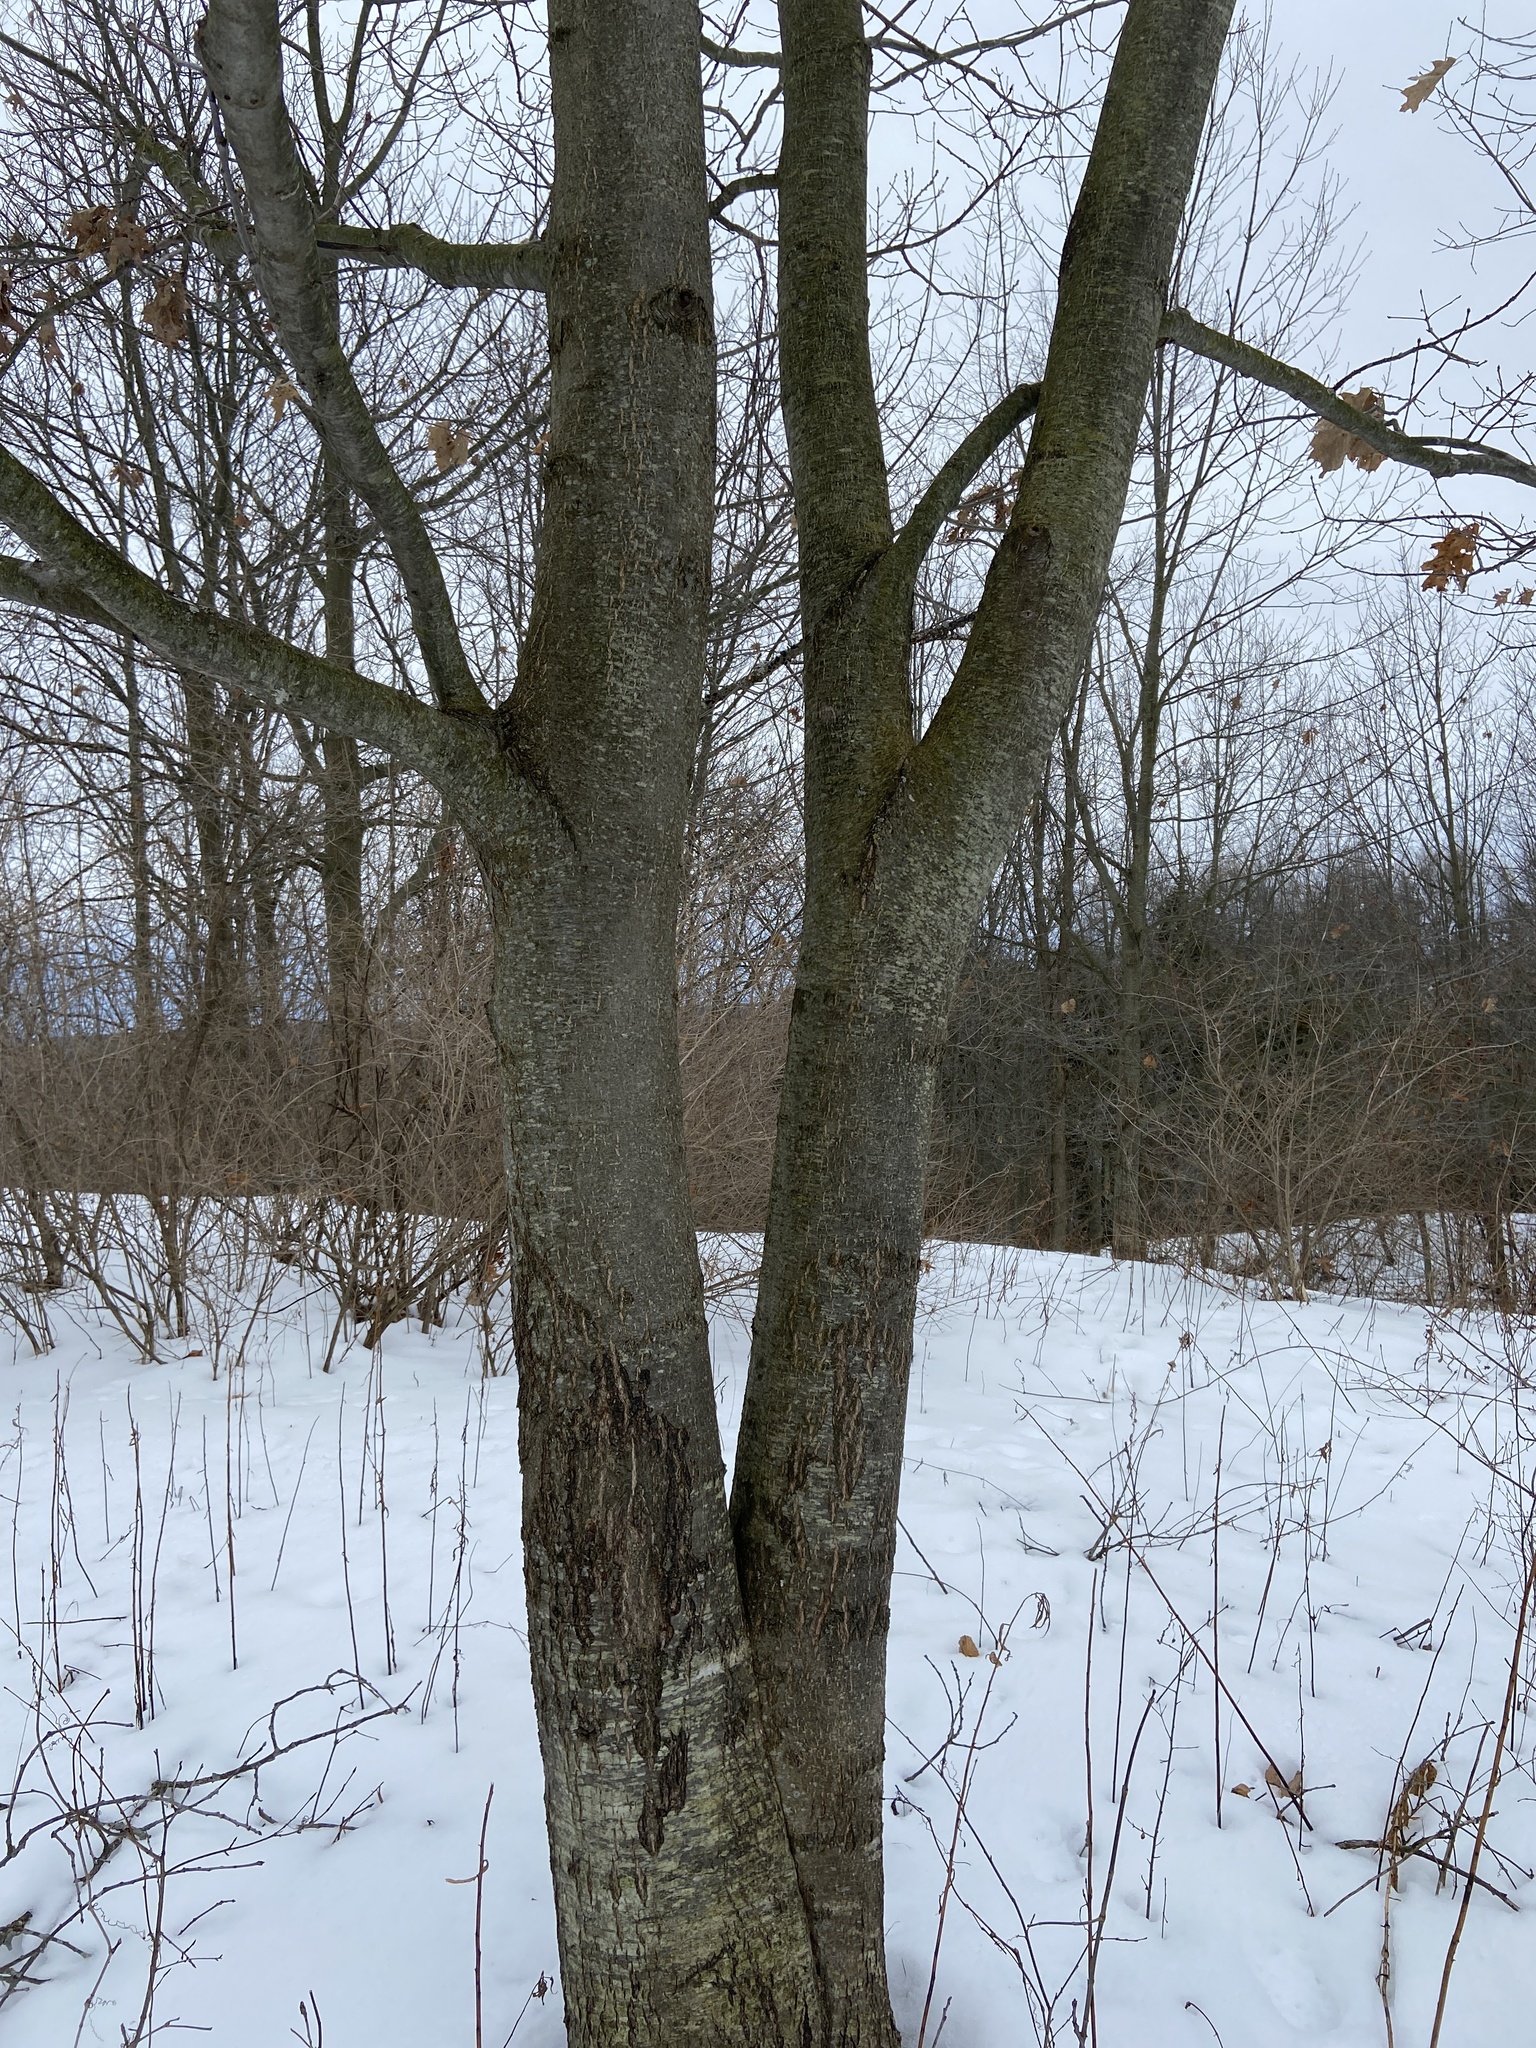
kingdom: Plantae
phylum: Tracheophyta
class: Magnoliopsida
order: Fagales
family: Fagaceae
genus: Quercus
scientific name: Quercus rubra
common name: Red oak
